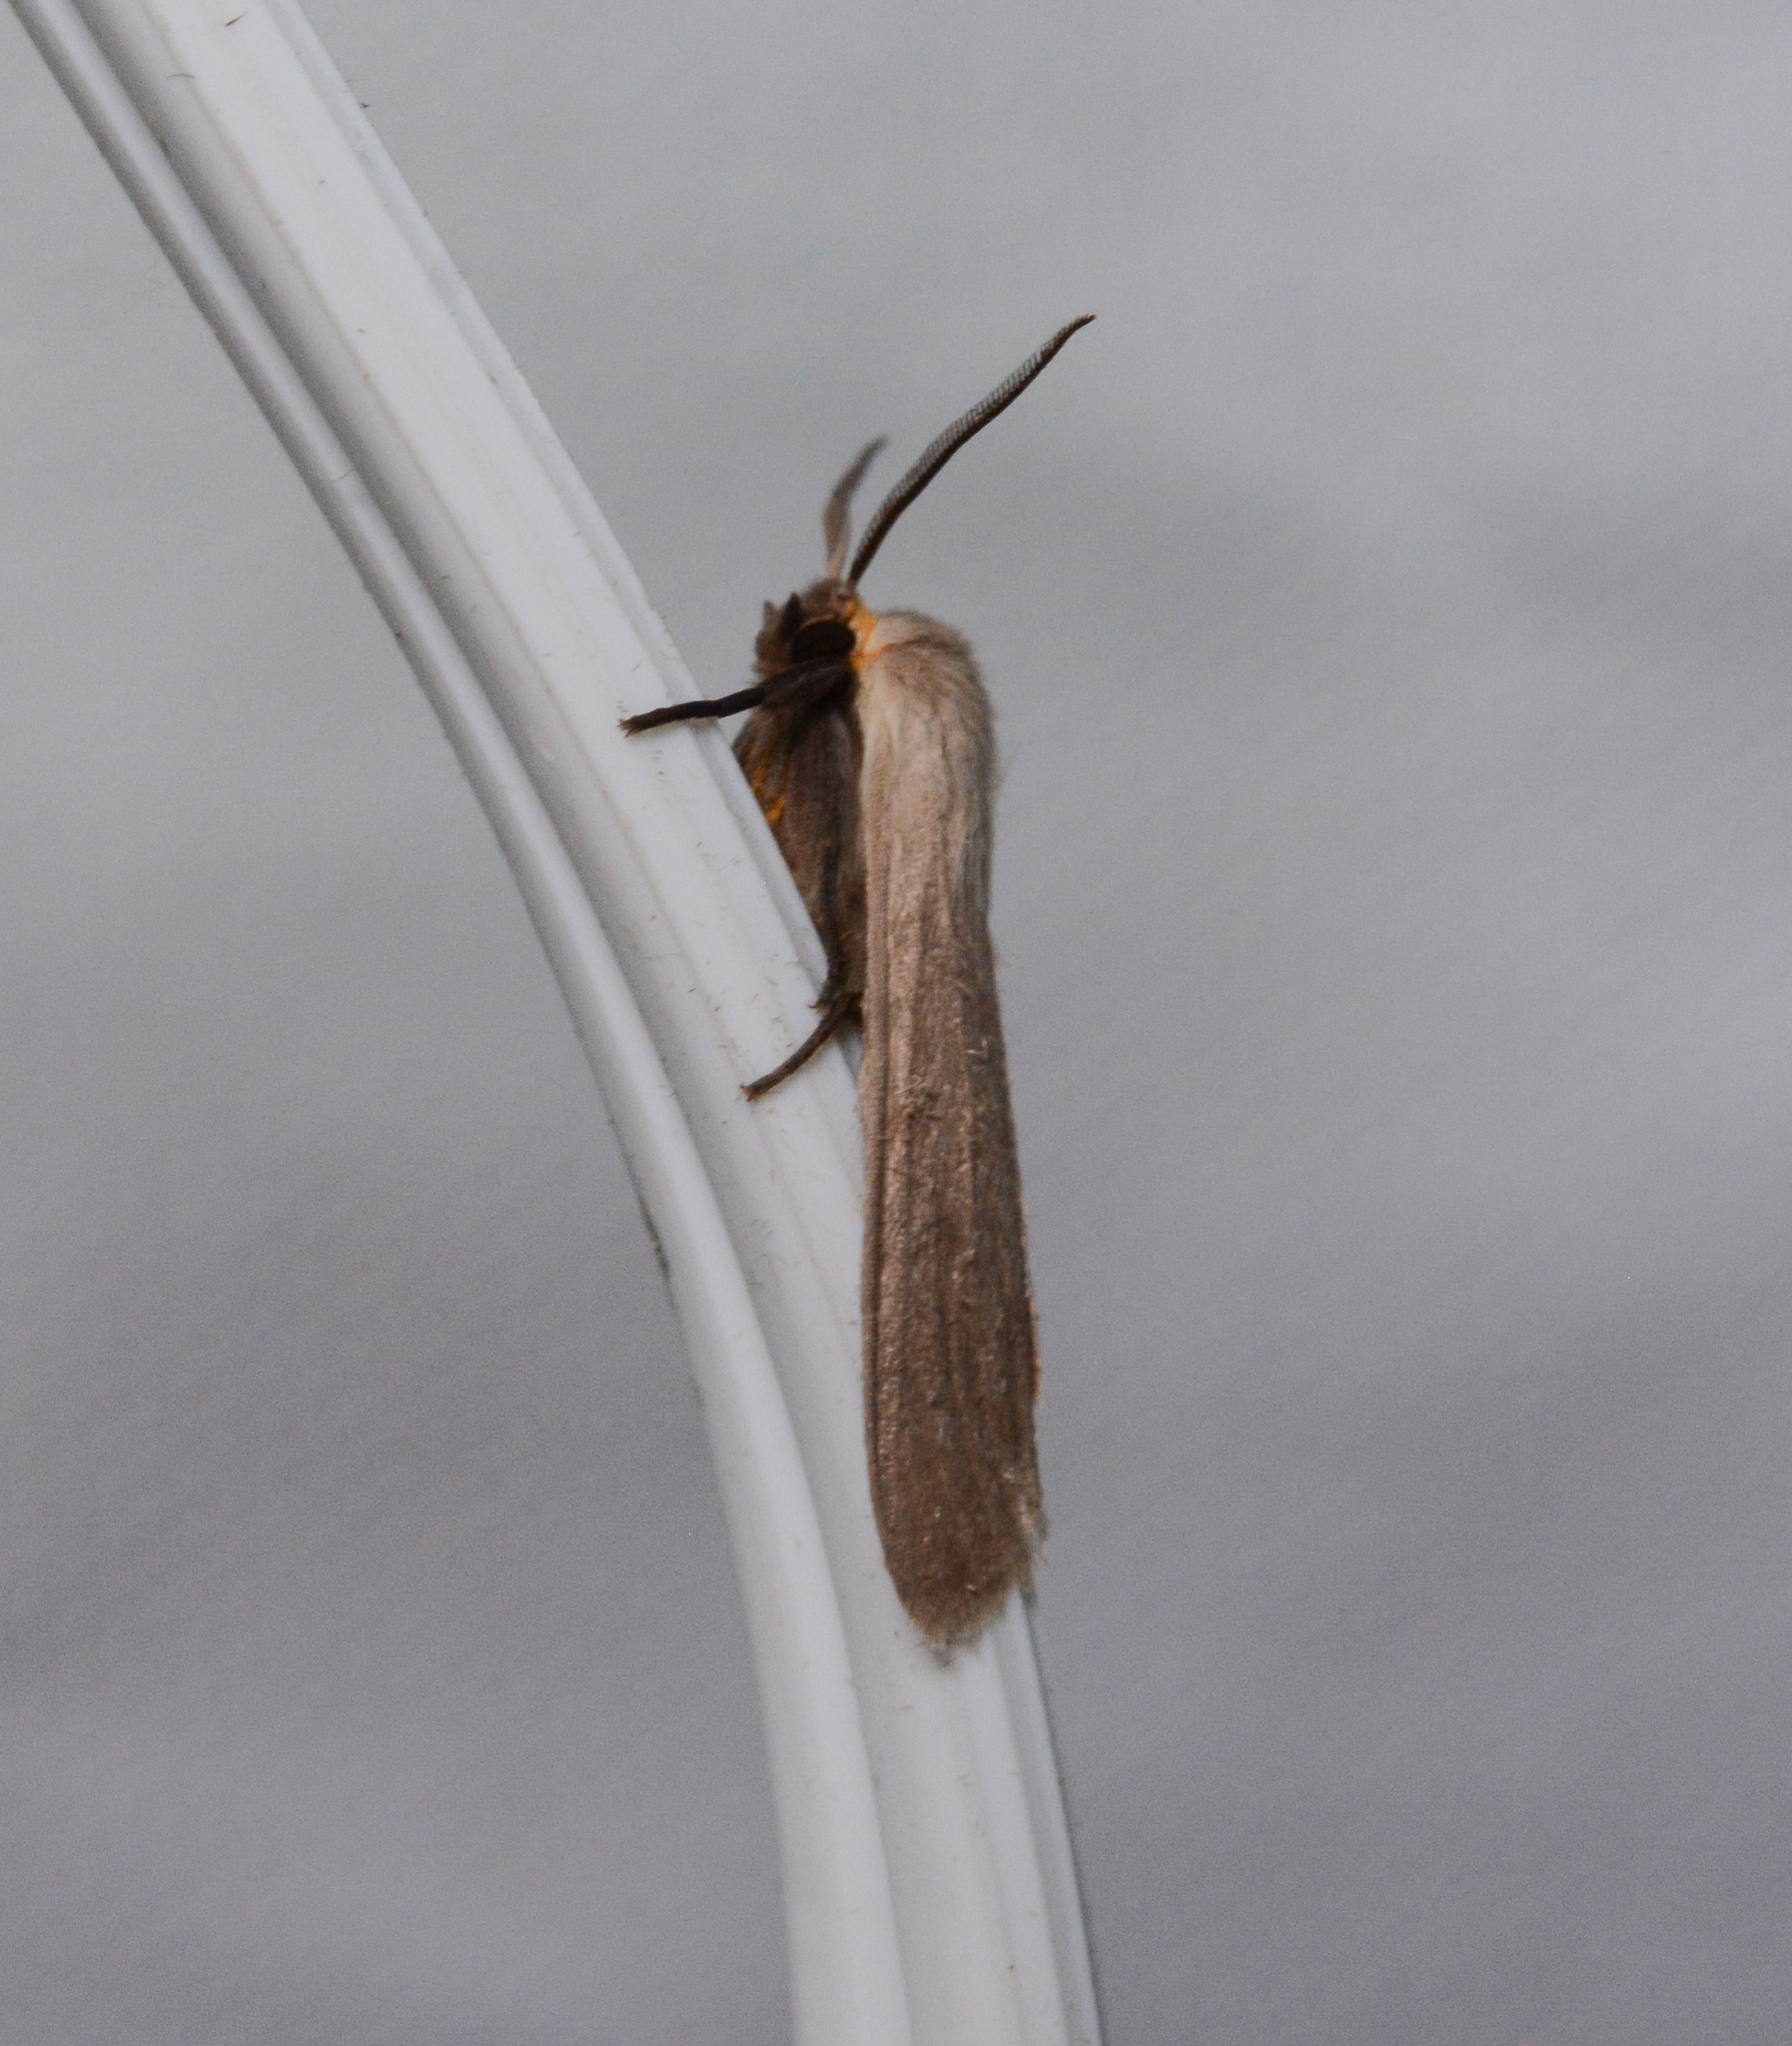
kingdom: Animalia
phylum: Arthropoda
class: Insecta
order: Lepidoptera
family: Erebidae
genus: Euchaetes
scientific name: Euchaetes egle
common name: Milkweed tussock moth
